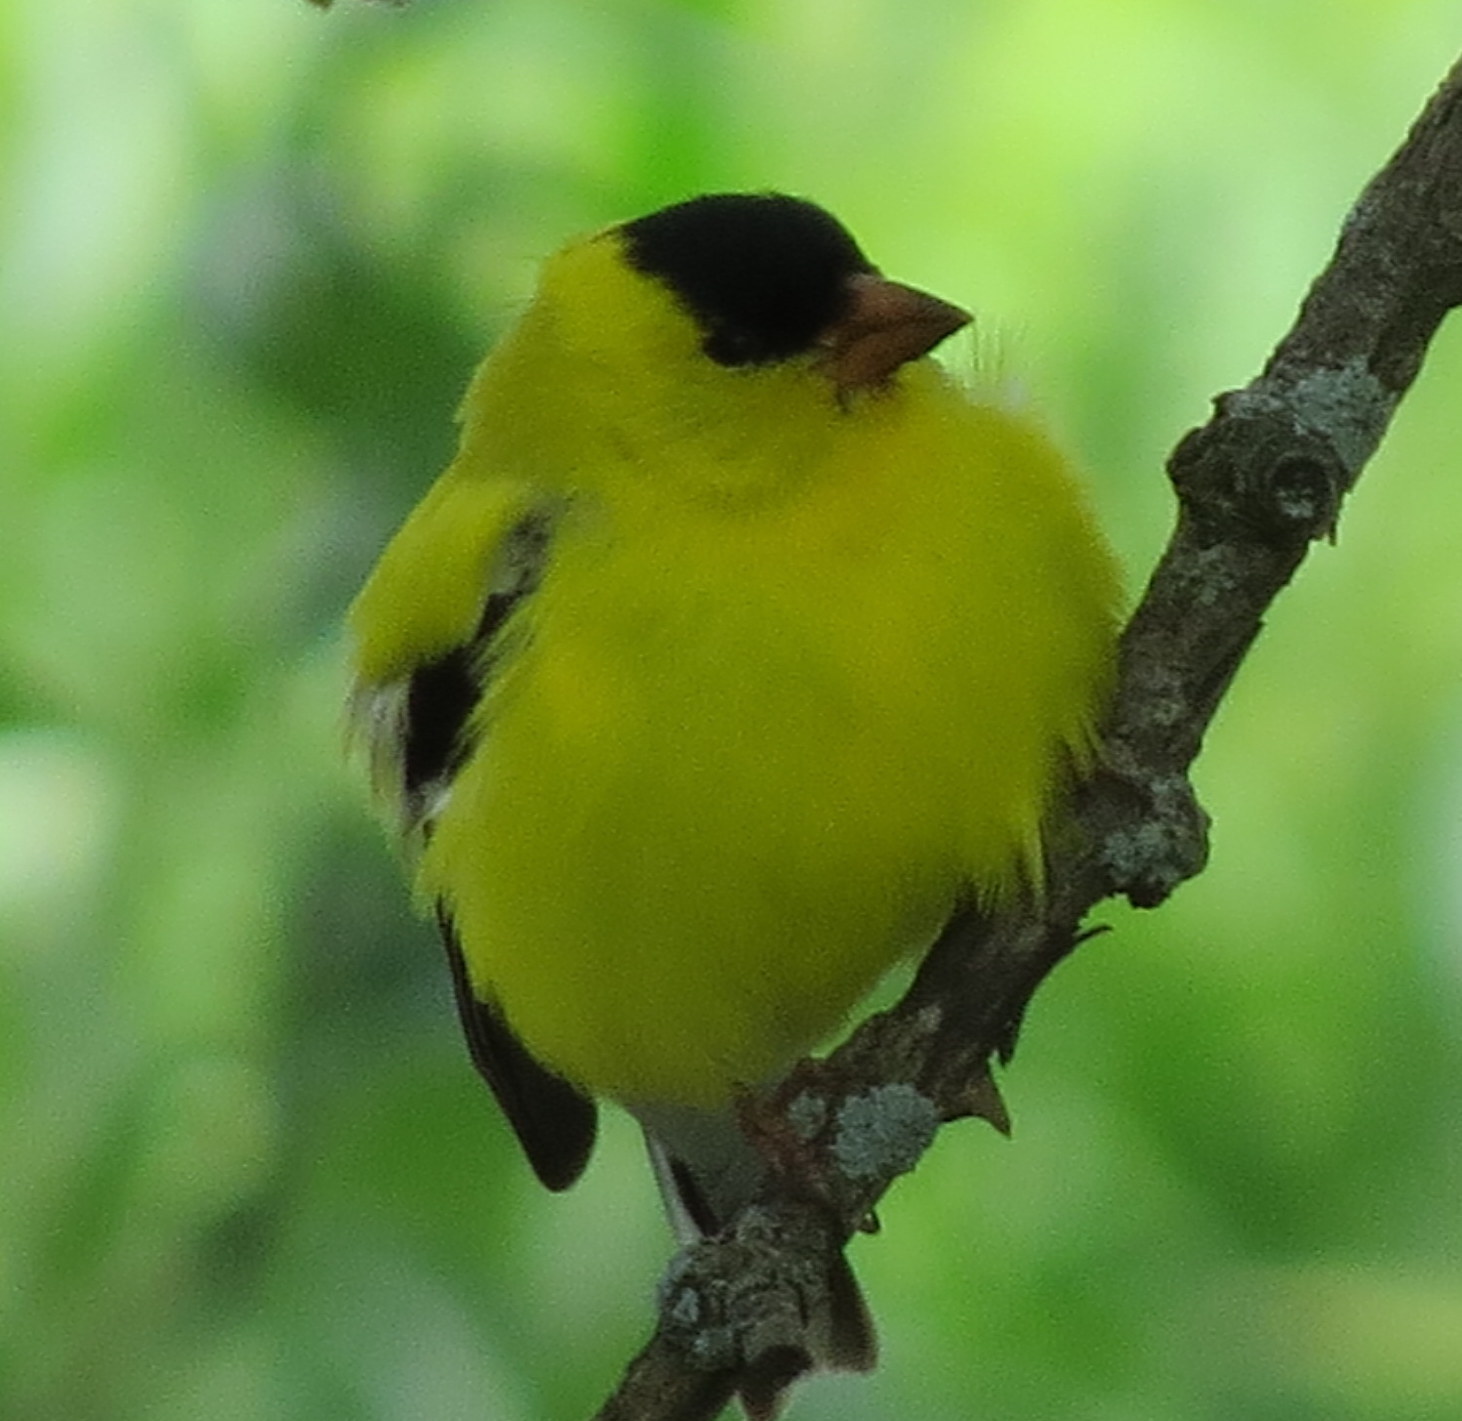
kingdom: Animalia
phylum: Chordata
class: Aves
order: Passeriformes
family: Fringillidae
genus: Spinus
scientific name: Spinus tristis
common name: American goldfinch
